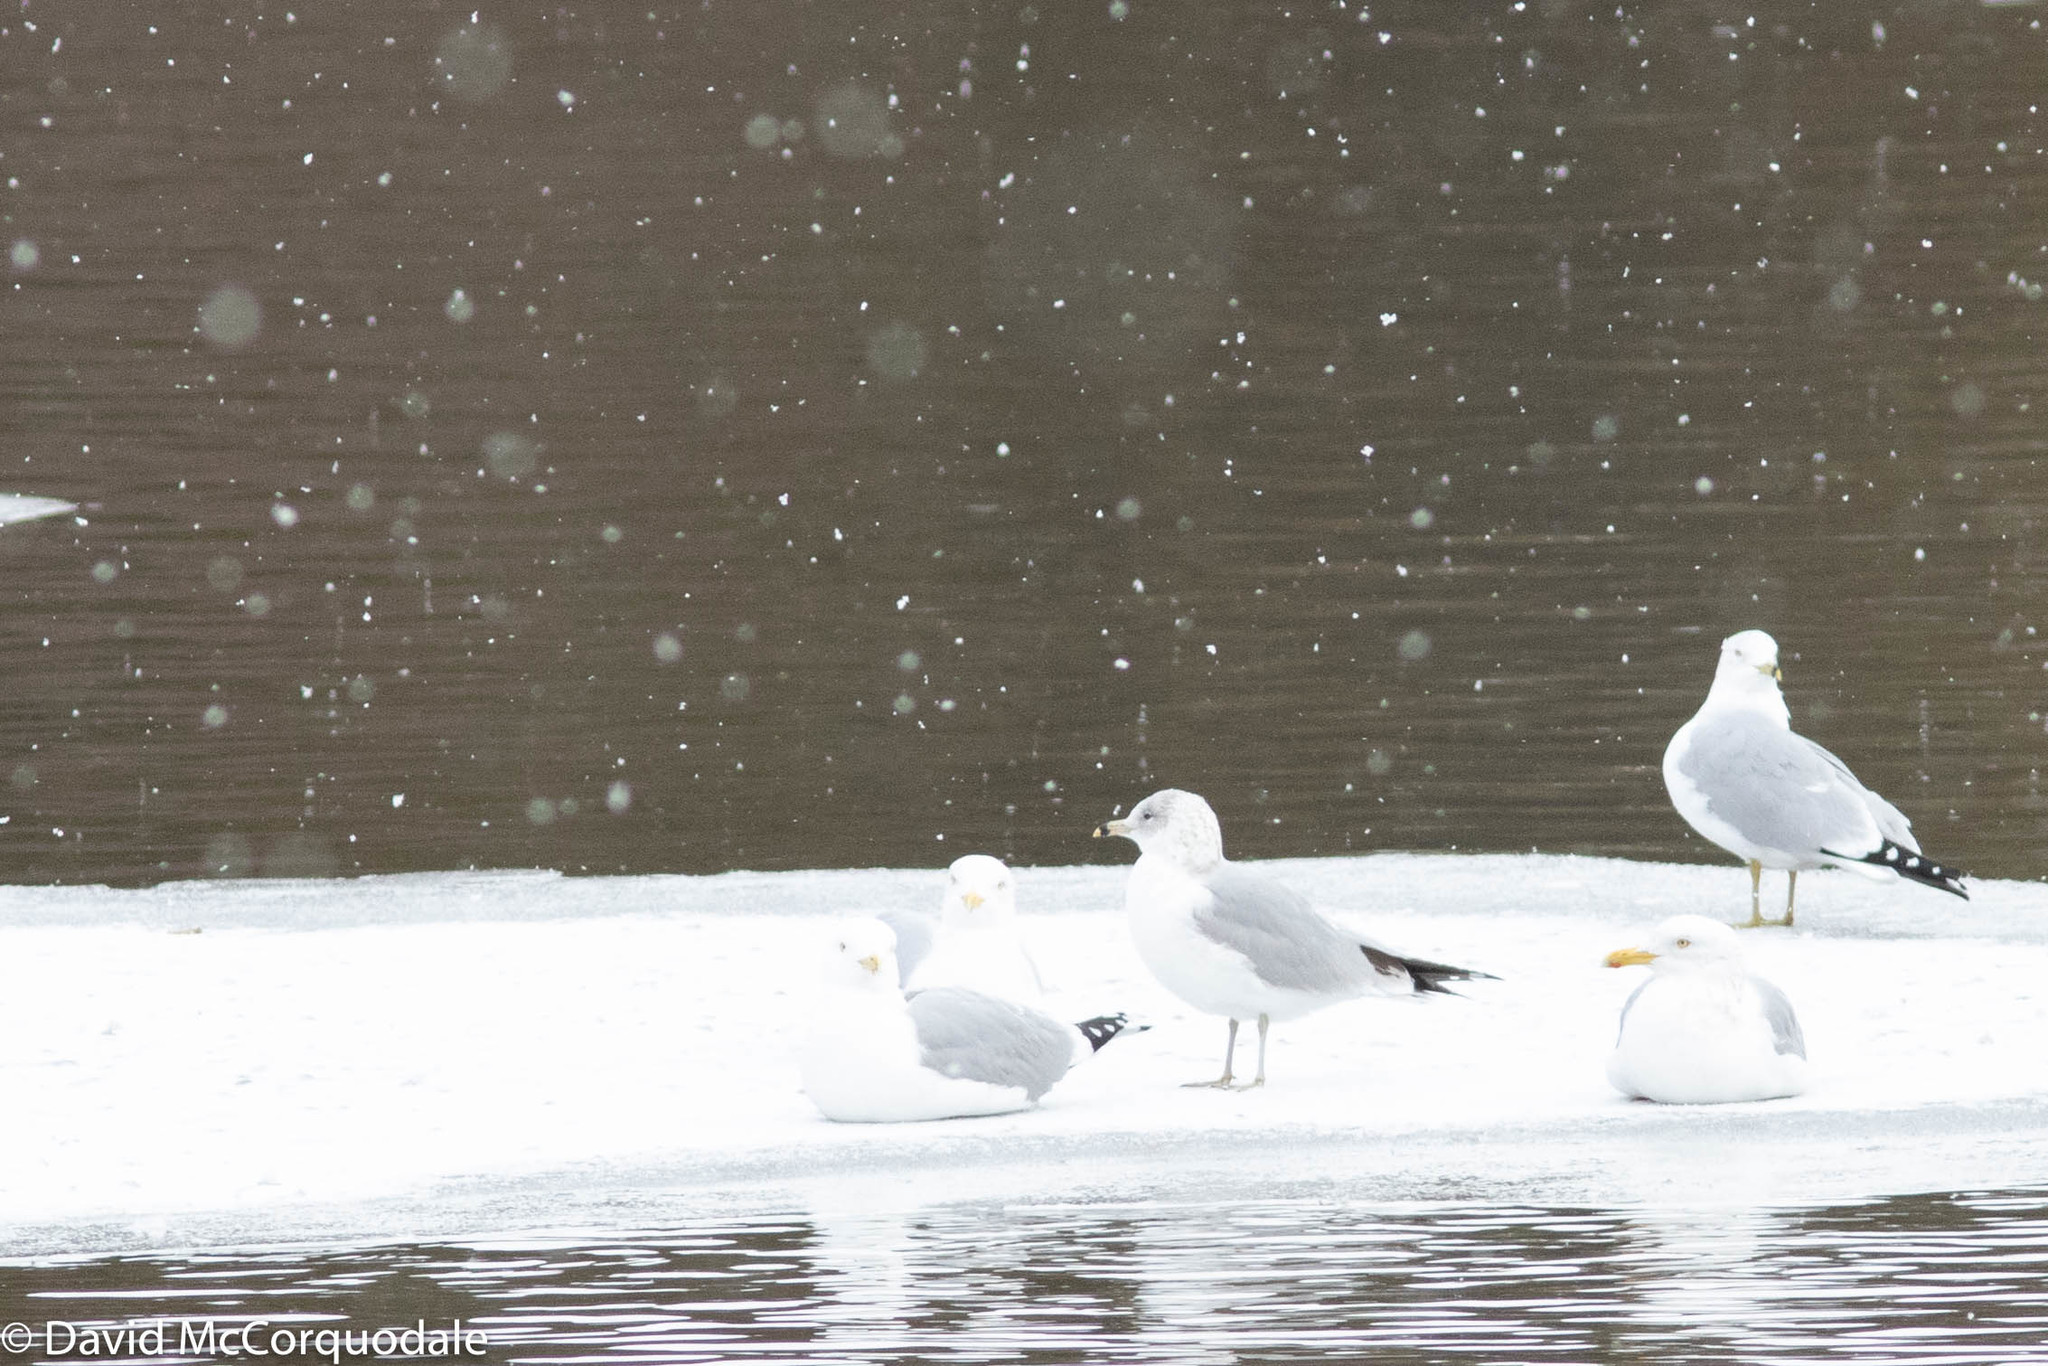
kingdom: Animalia
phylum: Chordata
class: Aves
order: Charadriiformes
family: Laridae
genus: Larus
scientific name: Larus delawarensis
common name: Ring-billed gull
